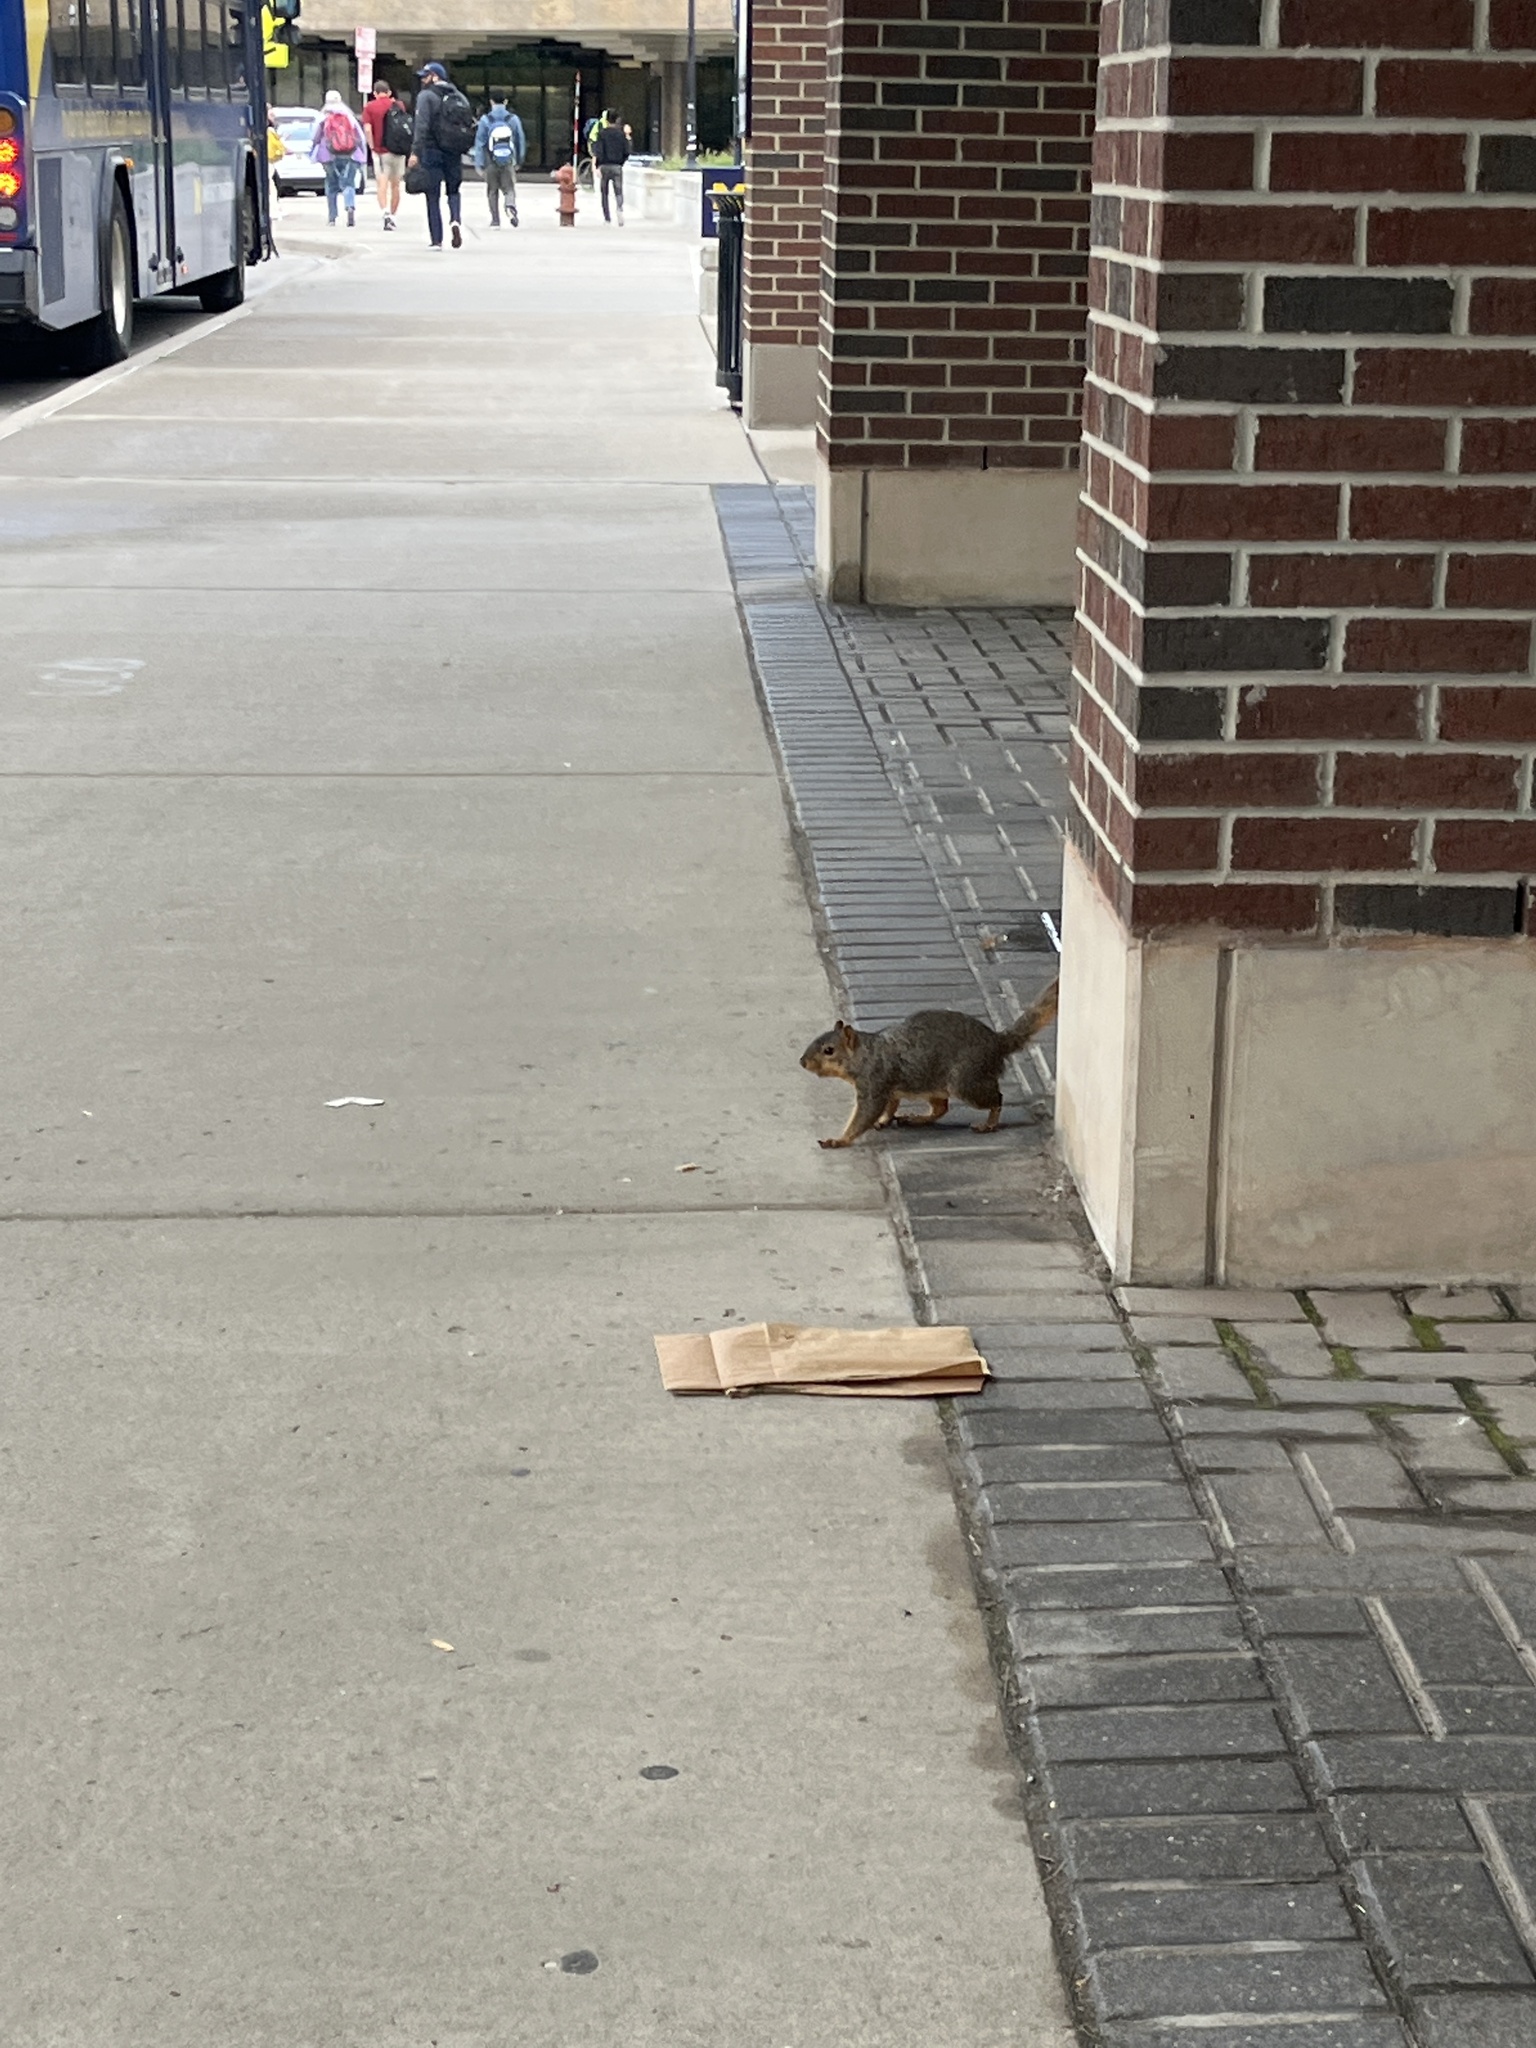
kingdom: Animalia
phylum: Chordata
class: Mammalia
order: Rodentia
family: Sciuridae
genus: Sciurus
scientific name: Sciurus niger
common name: Fox squirrel
